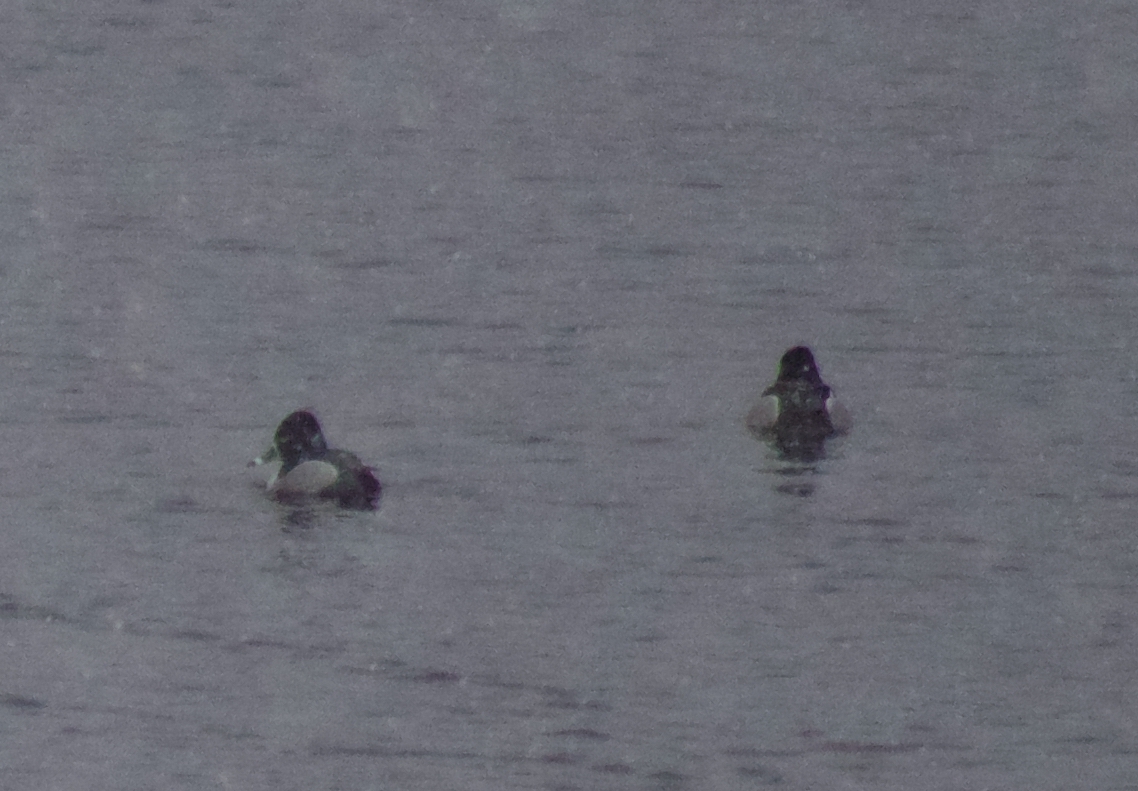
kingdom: Animalia
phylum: Chordata
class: Aves
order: Anseriformes
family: Anatidae
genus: Aythya
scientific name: Aythya collaris
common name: Ring-necked duck
